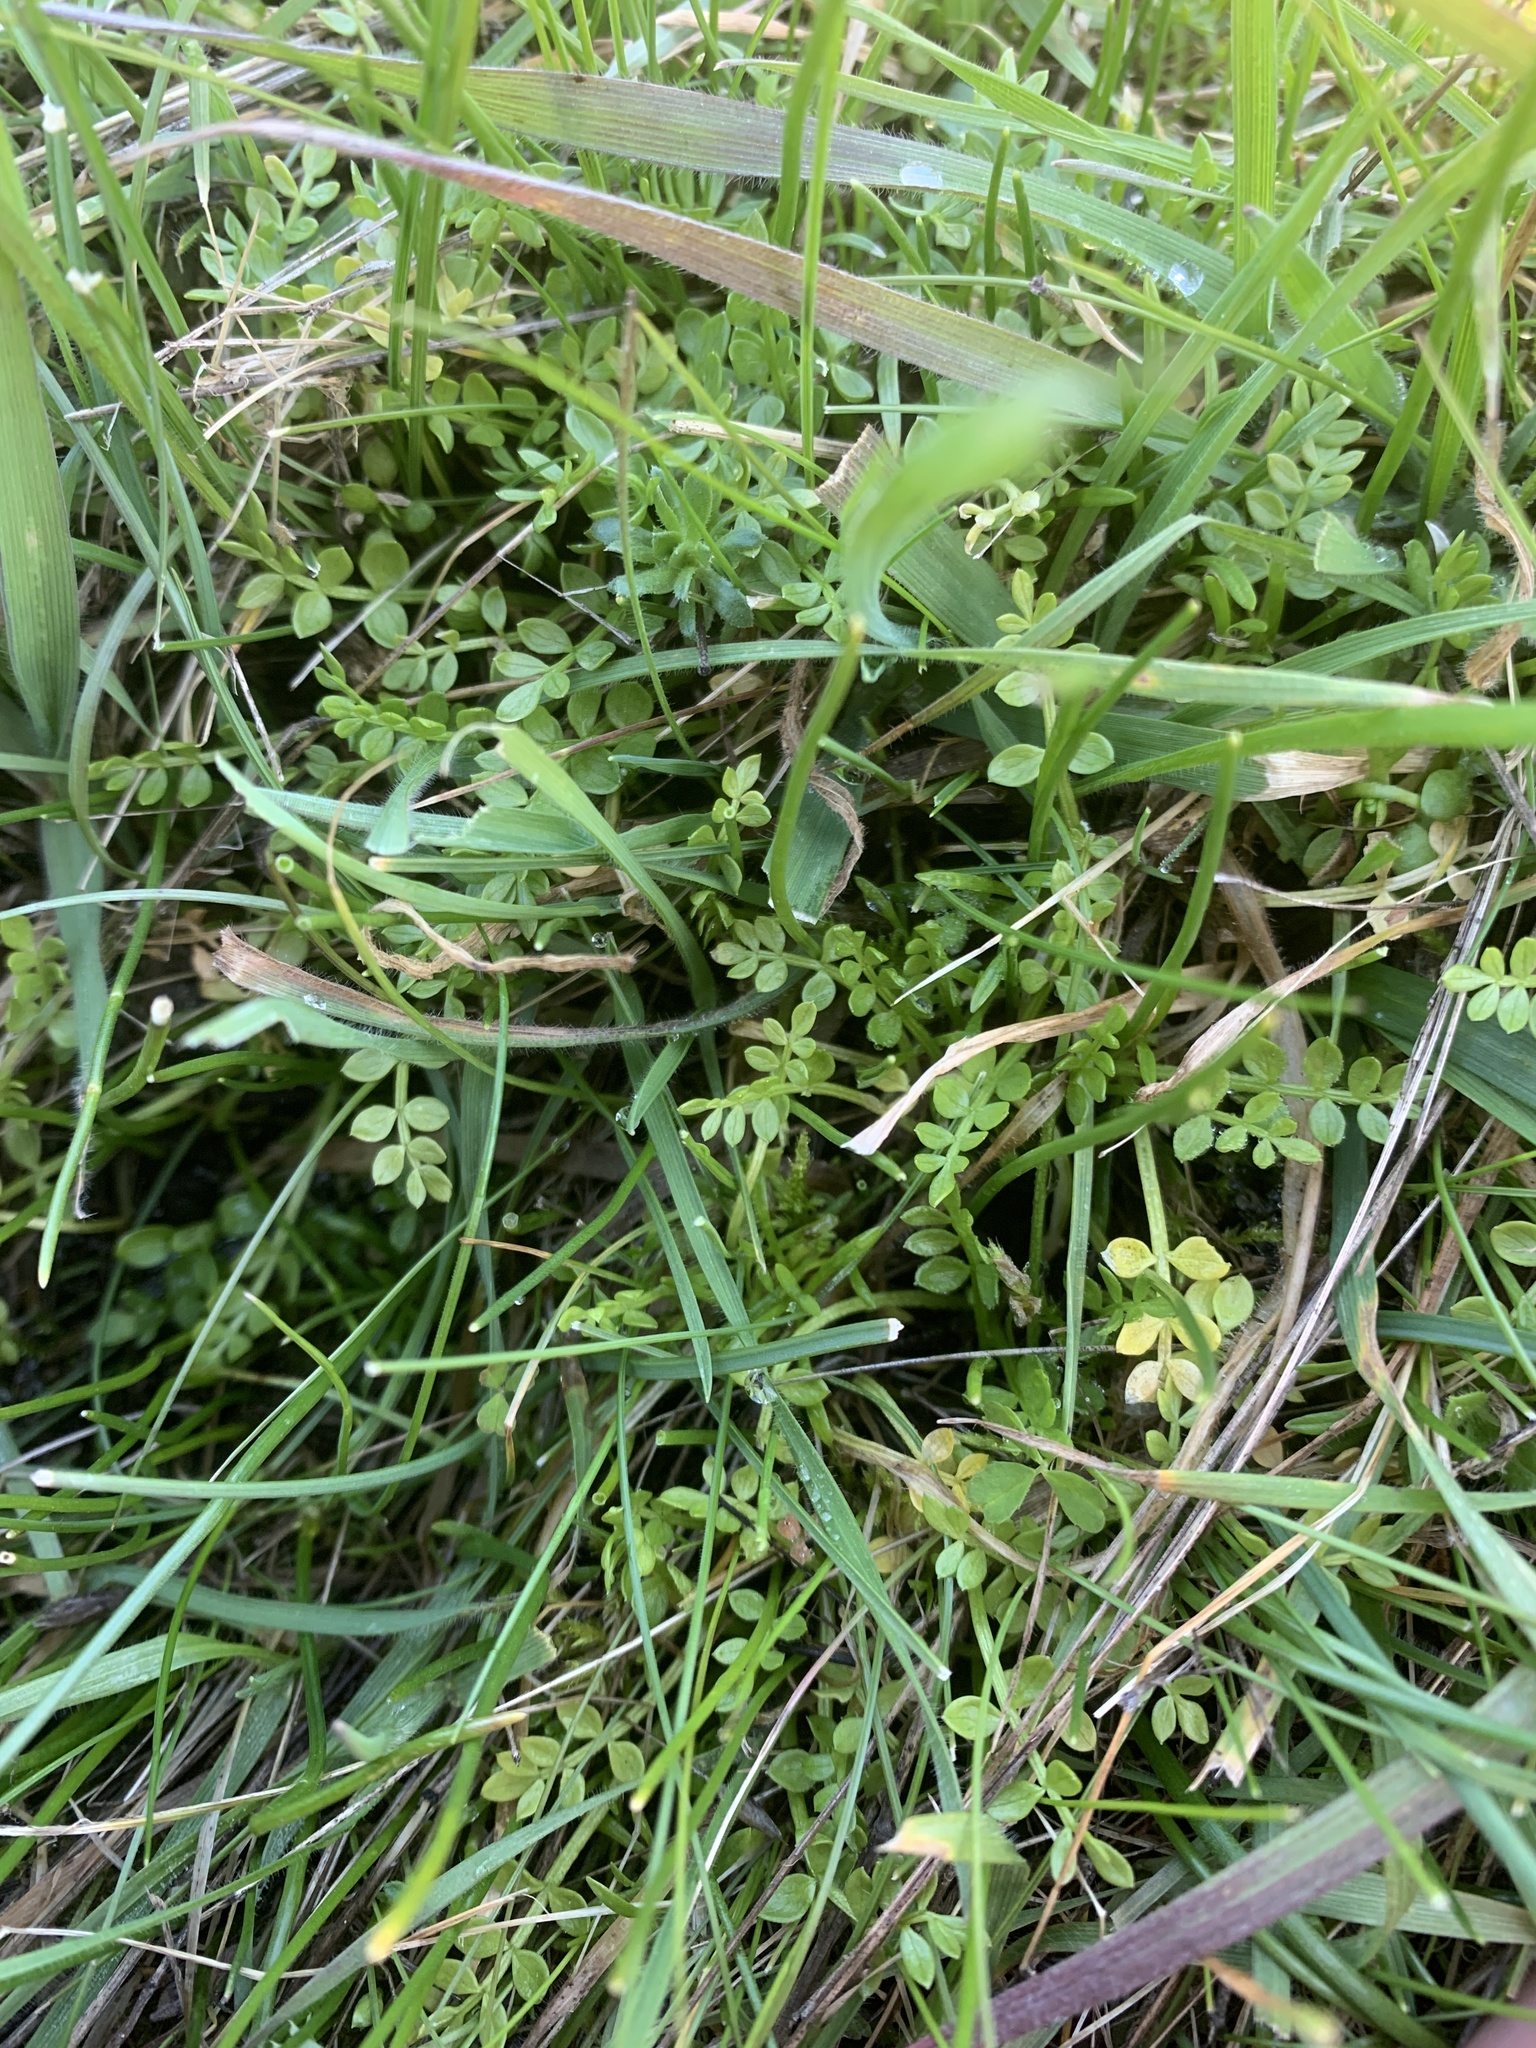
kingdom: Plantae
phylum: Tracheophyta
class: Magnoliopsida
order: Brassicales
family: Limnanthaceae
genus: Limnanthes
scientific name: Limnanthes macounii
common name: Macoun's meadowfoam
